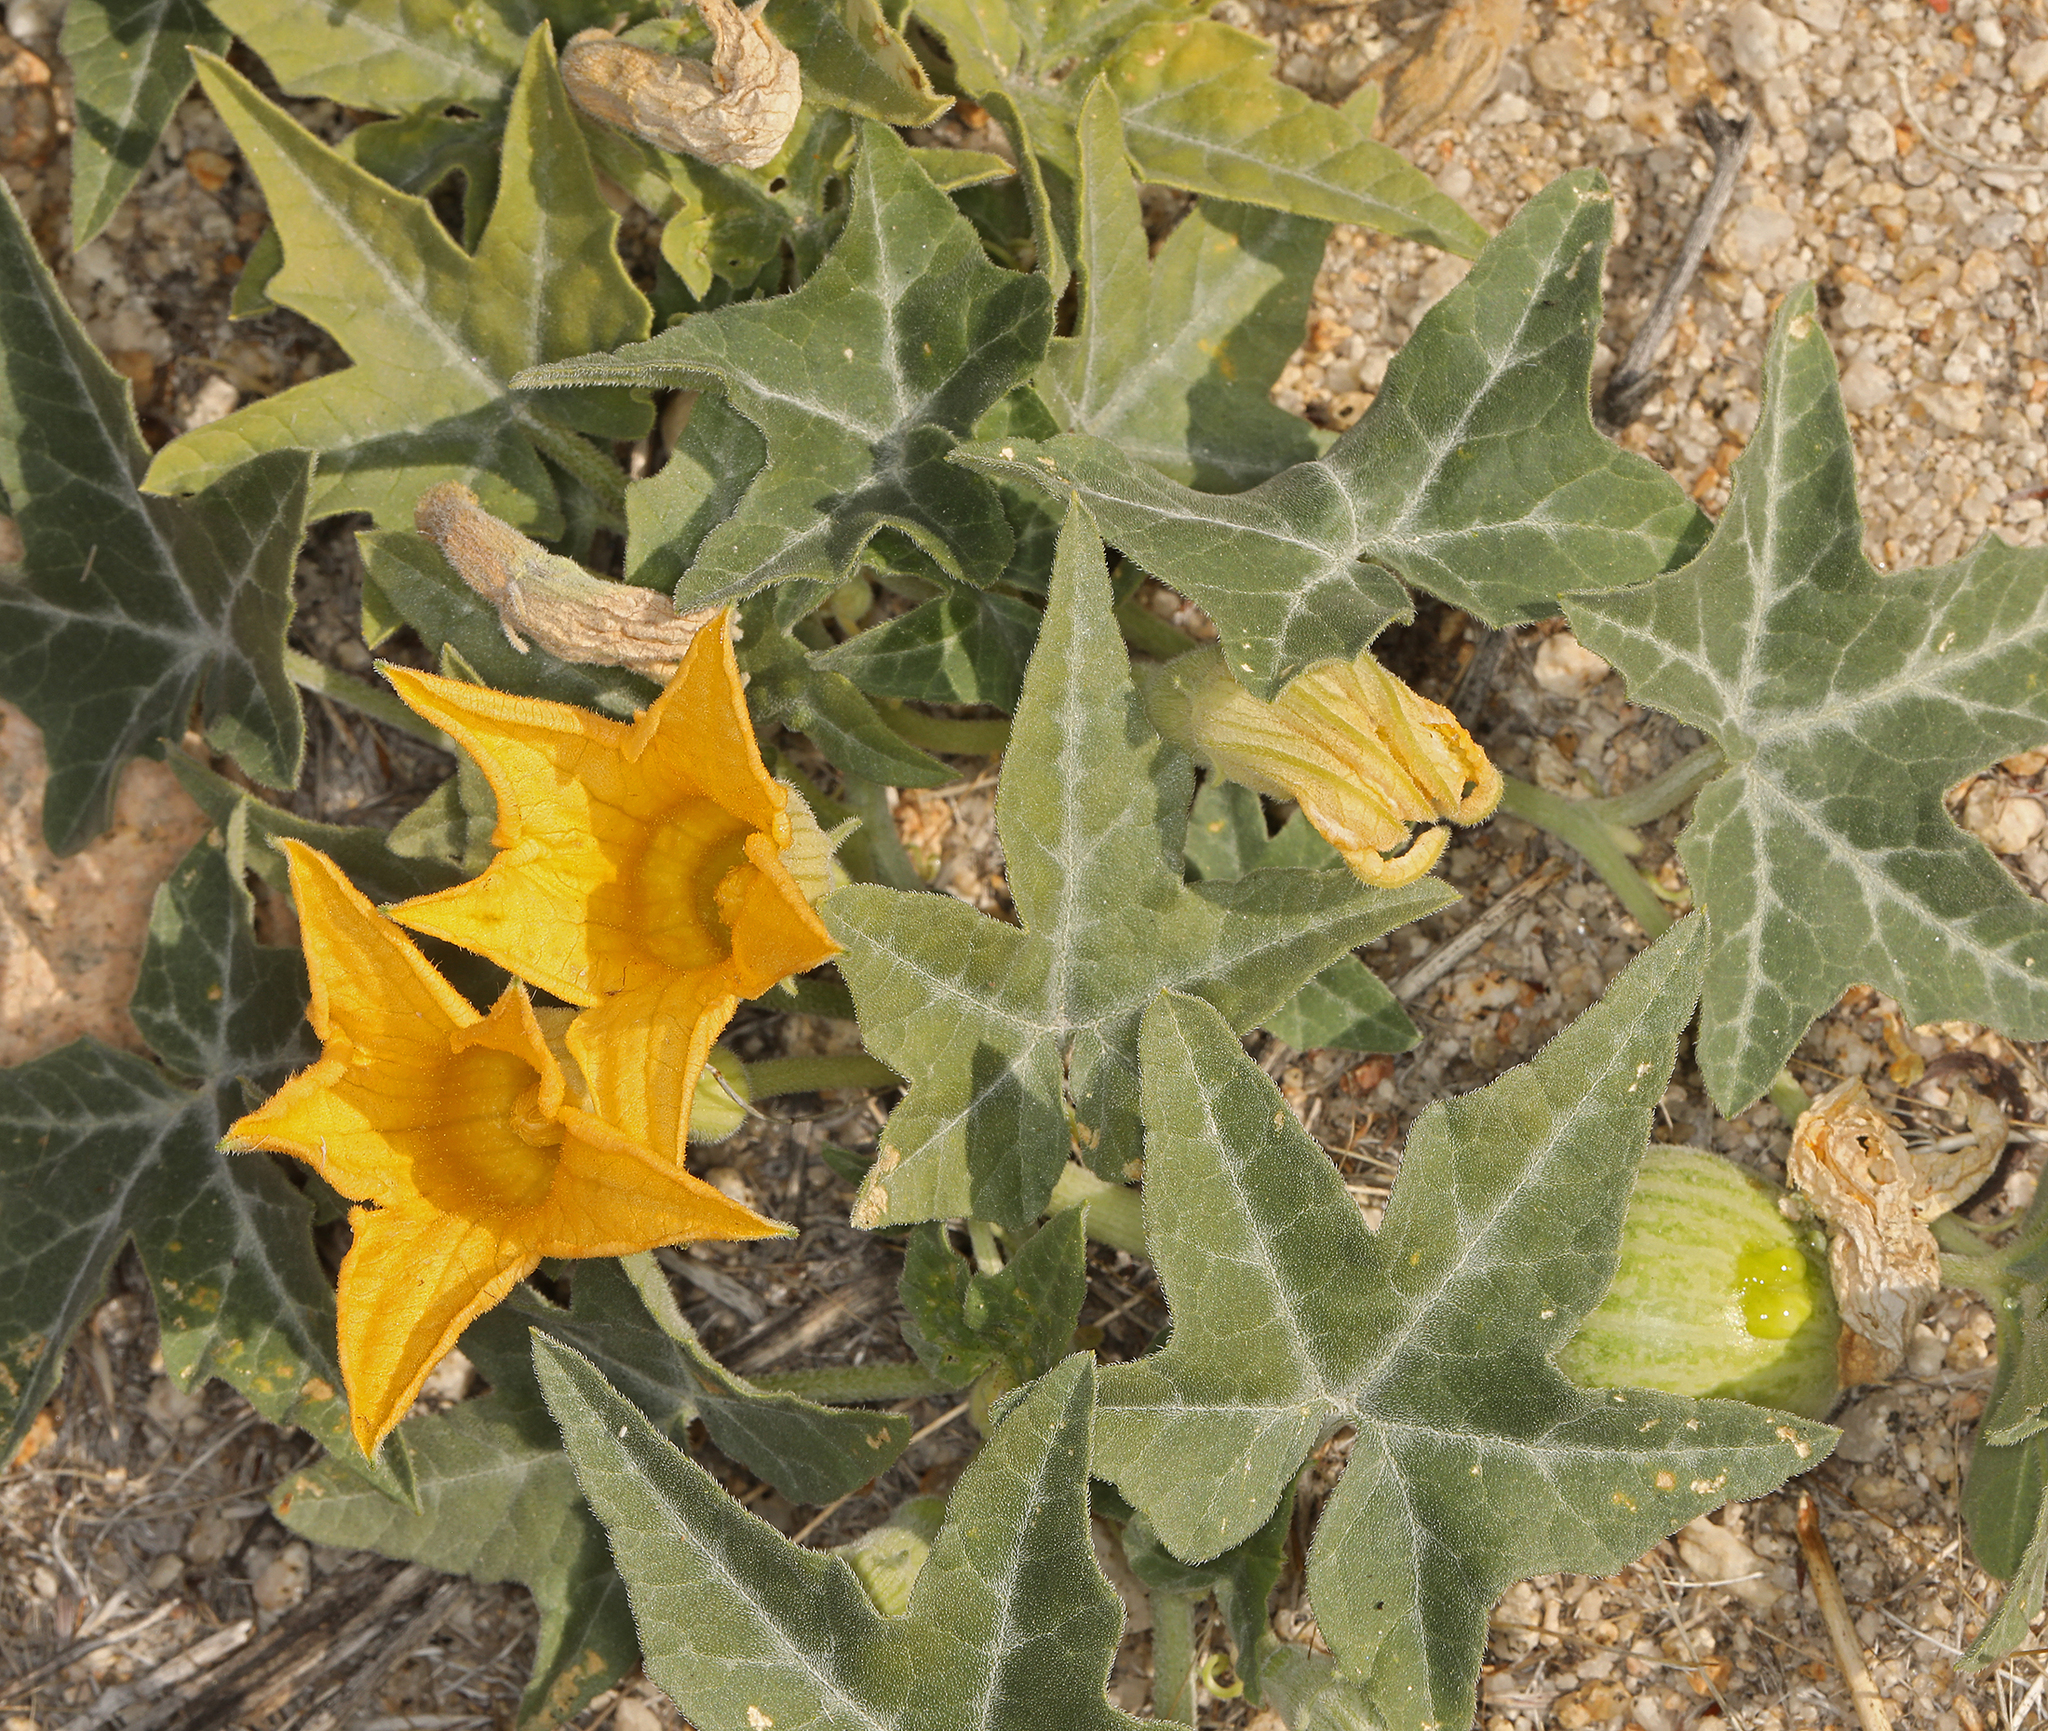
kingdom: Plantae
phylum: Tracheophyta
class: Magnoliopsida
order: Cucurbitales
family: Cucurbitaceae
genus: Cucurbita
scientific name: Cucurbita palmata
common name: Coyote-melon
